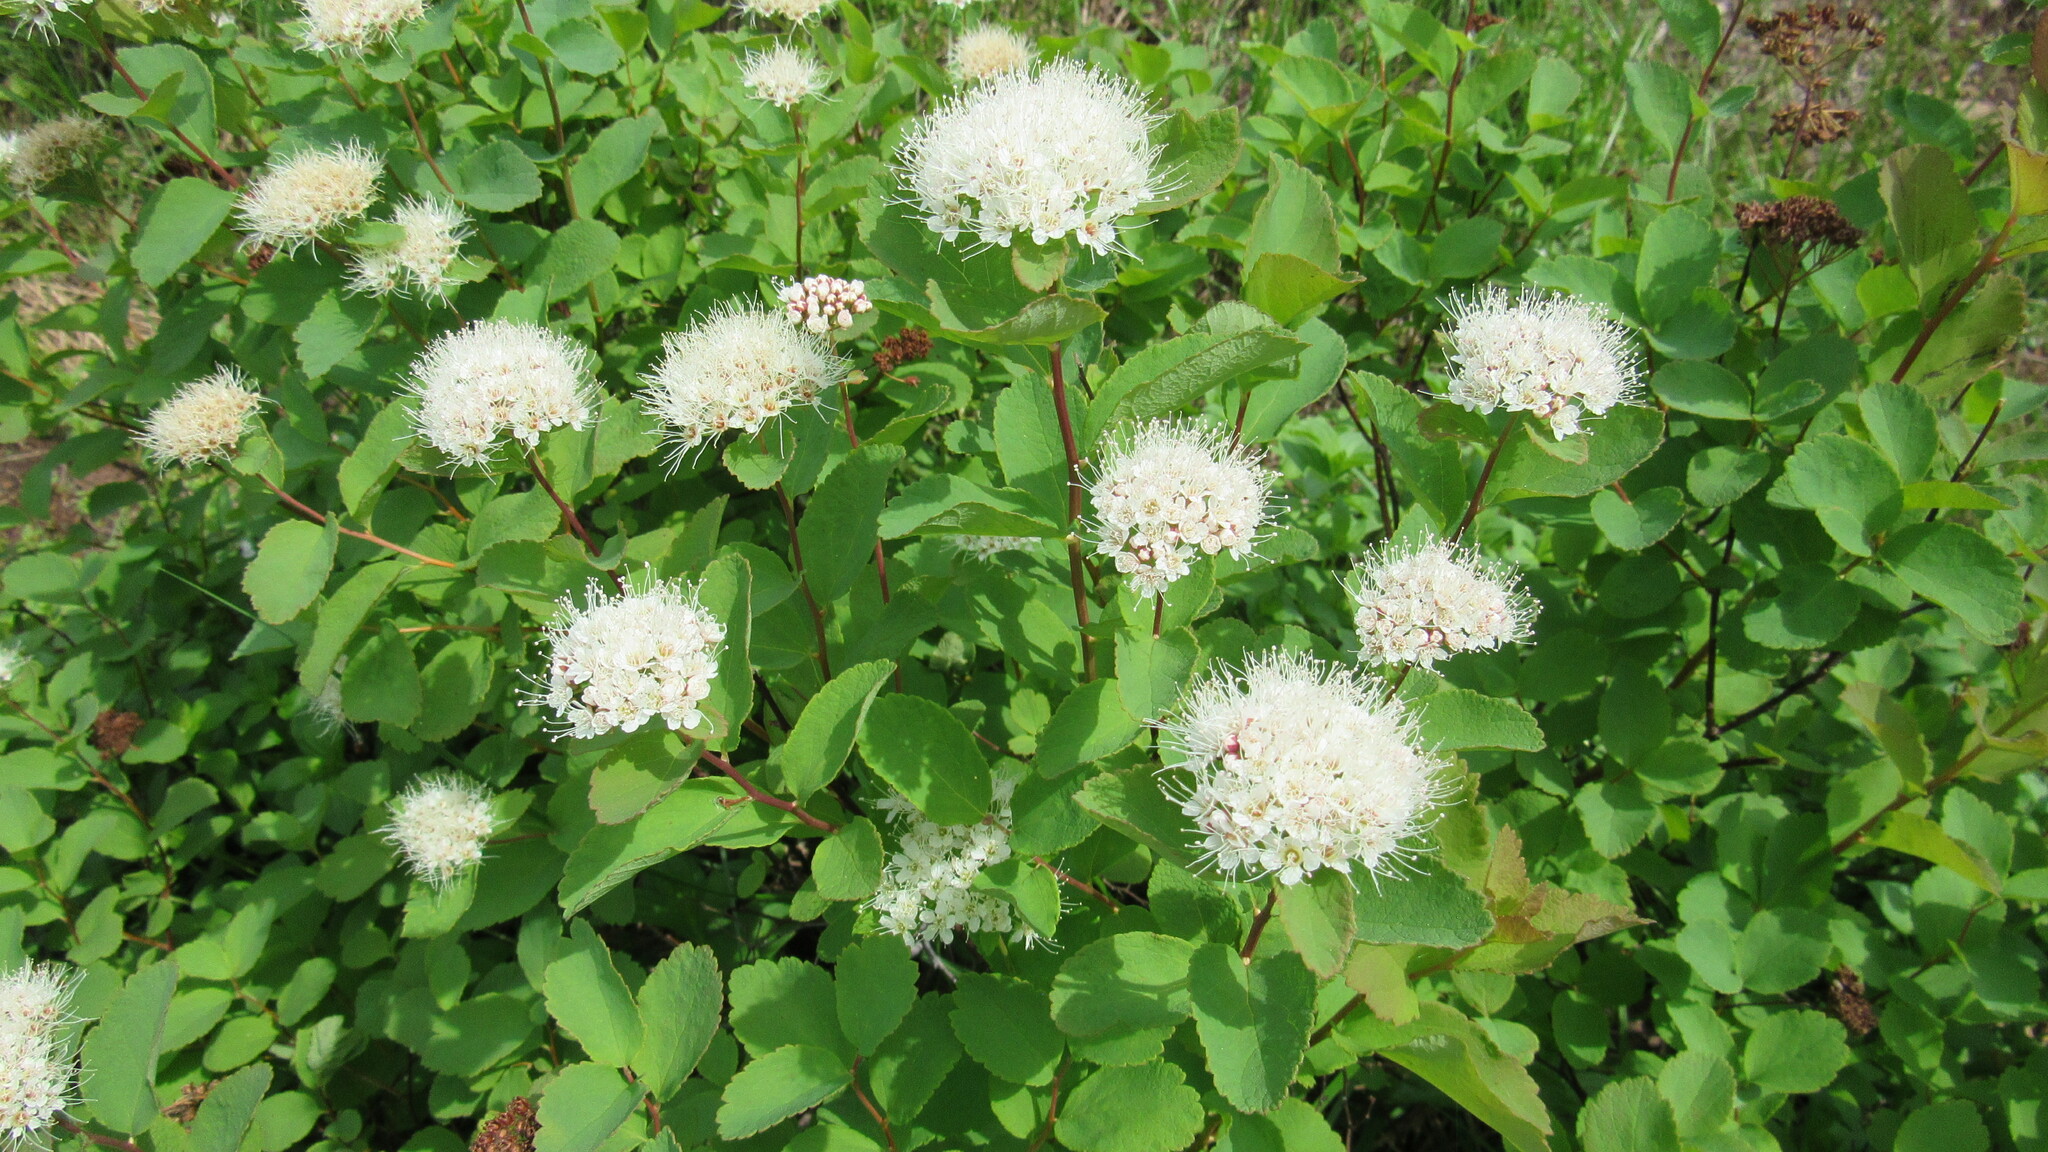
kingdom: Plantae
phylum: Tracheophyta
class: Magnoliopsida
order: Rosales
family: Rosaceae
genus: Spiraea
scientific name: Spiraea betulifolia
